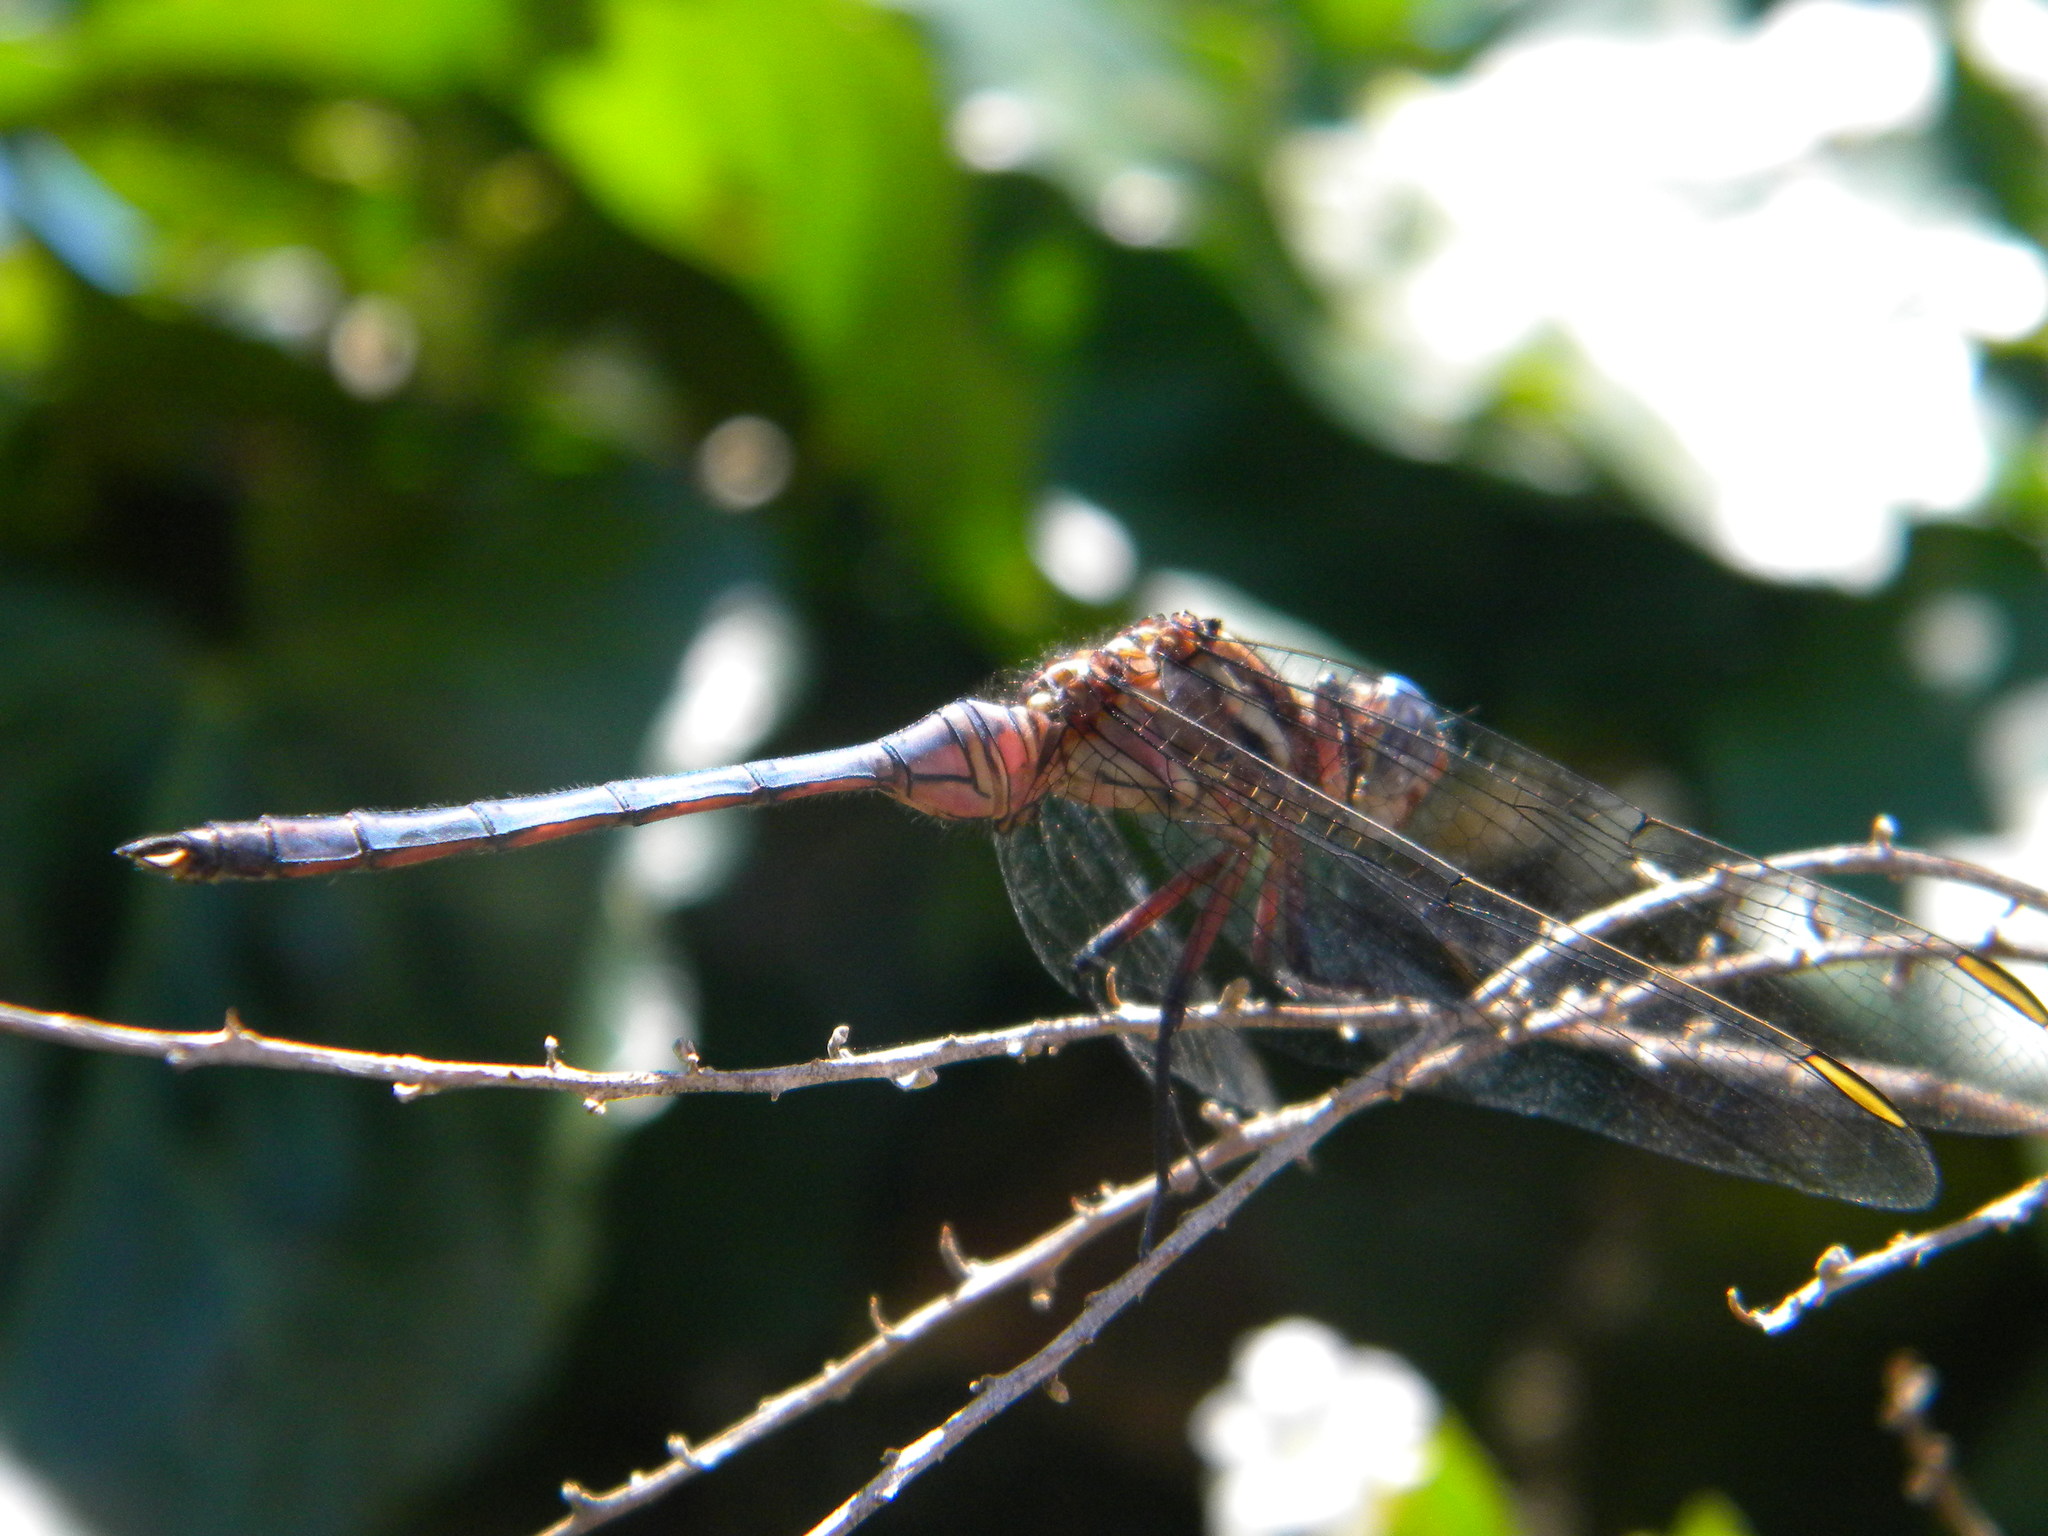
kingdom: Animalia
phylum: Arthropoda
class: Insecta
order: Odonata
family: Libellulidae
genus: Orthetrum
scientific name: Orthetrum julia
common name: Julia skimmer
